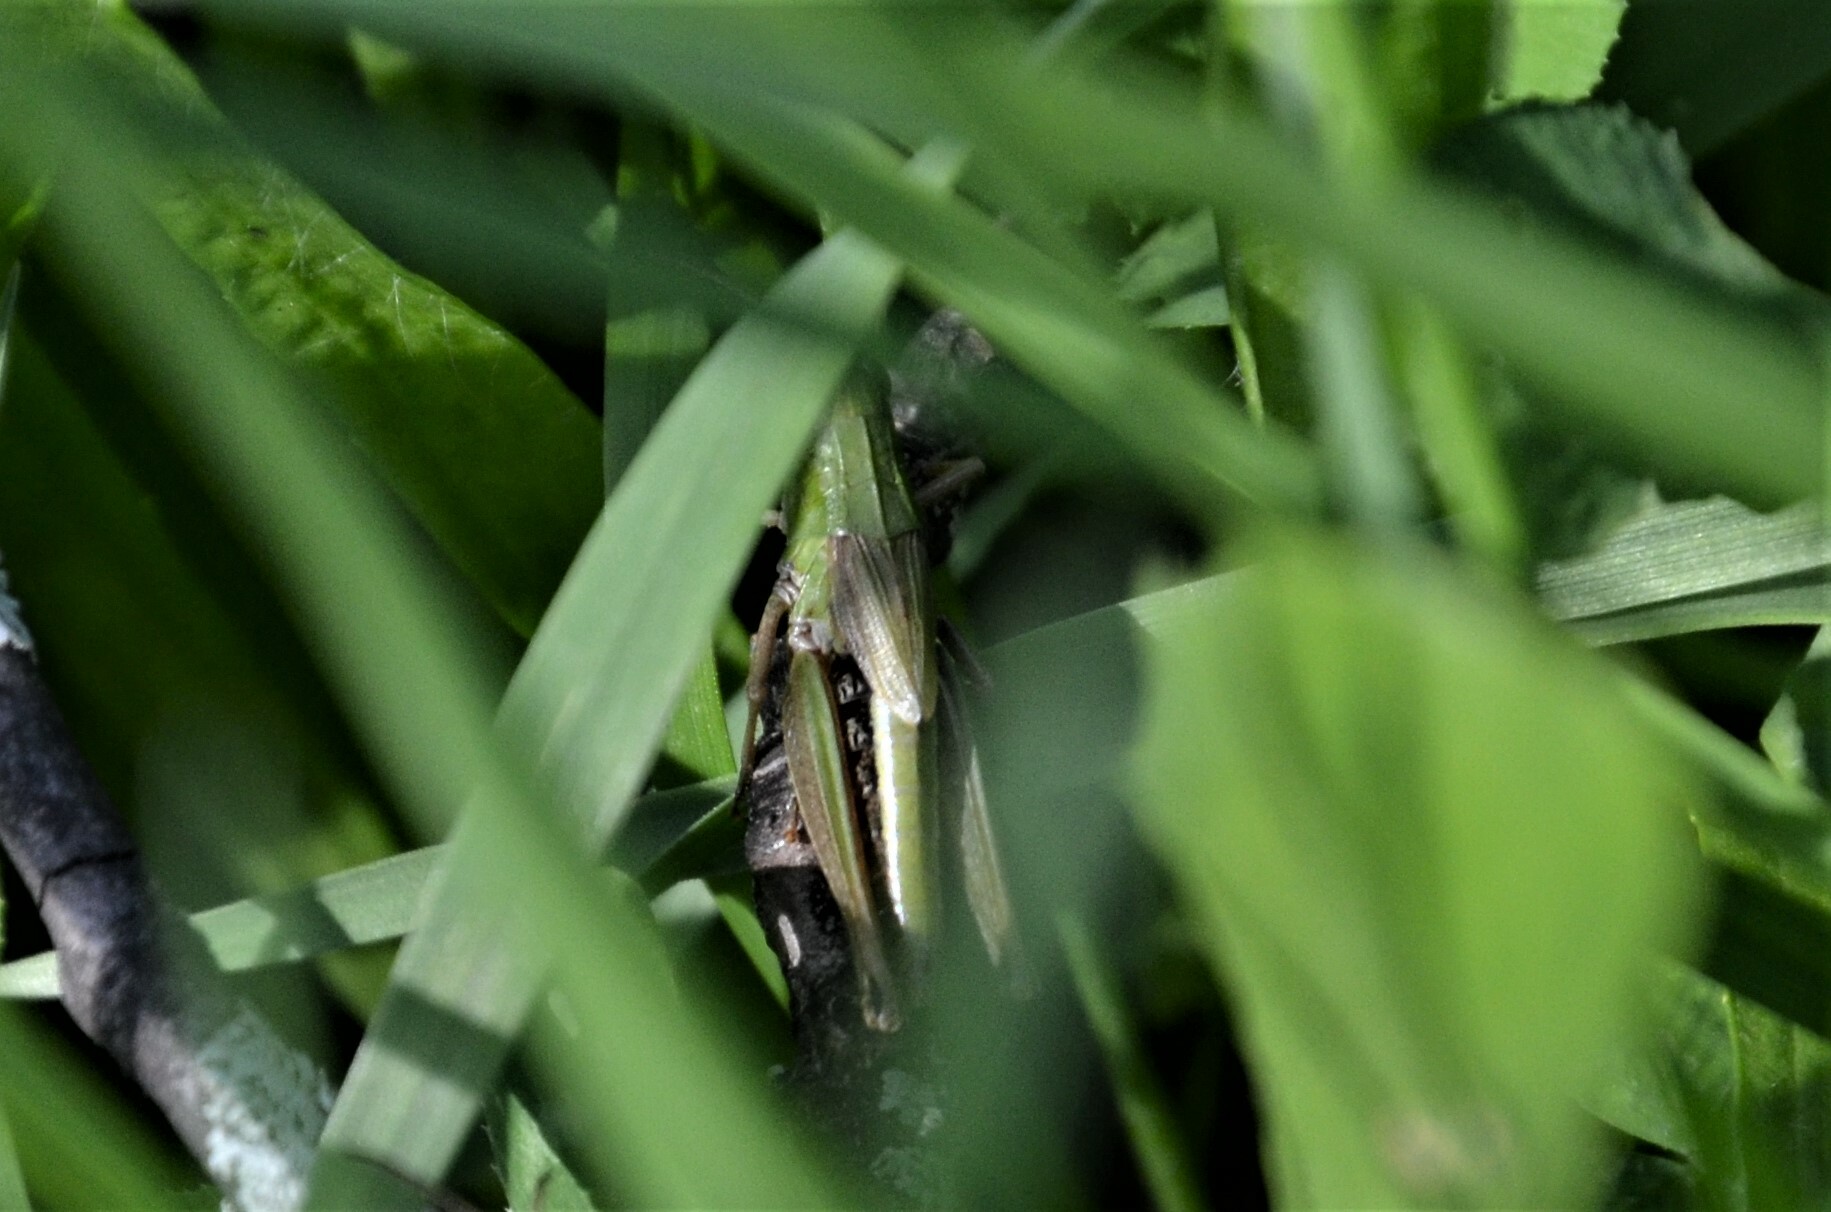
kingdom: Animalia
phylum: Arthropoda
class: Insecta
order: Orthoptera
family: Acrididae
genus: Pseudochorthippus
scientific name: Pseudochorthippus parallelus
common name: Meadow grasshopper
